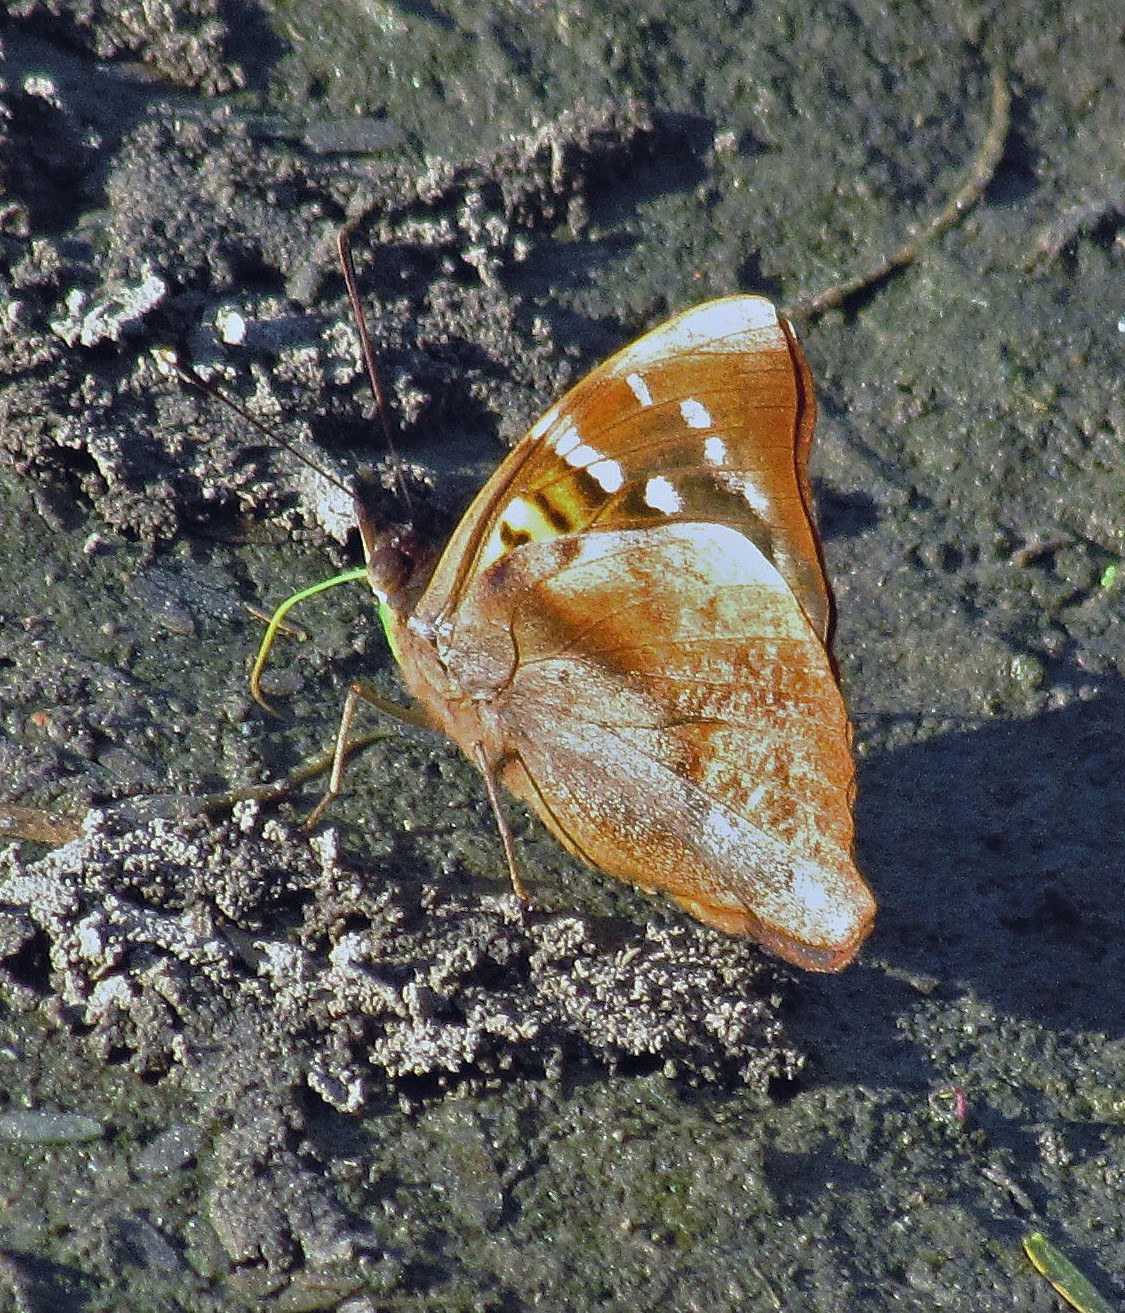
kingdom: Animalia
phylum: Arthropoda
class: Insecta
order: Lepidoptera
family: Nymphalidae
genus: Doxocopa
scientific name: Doxocopa kallina
